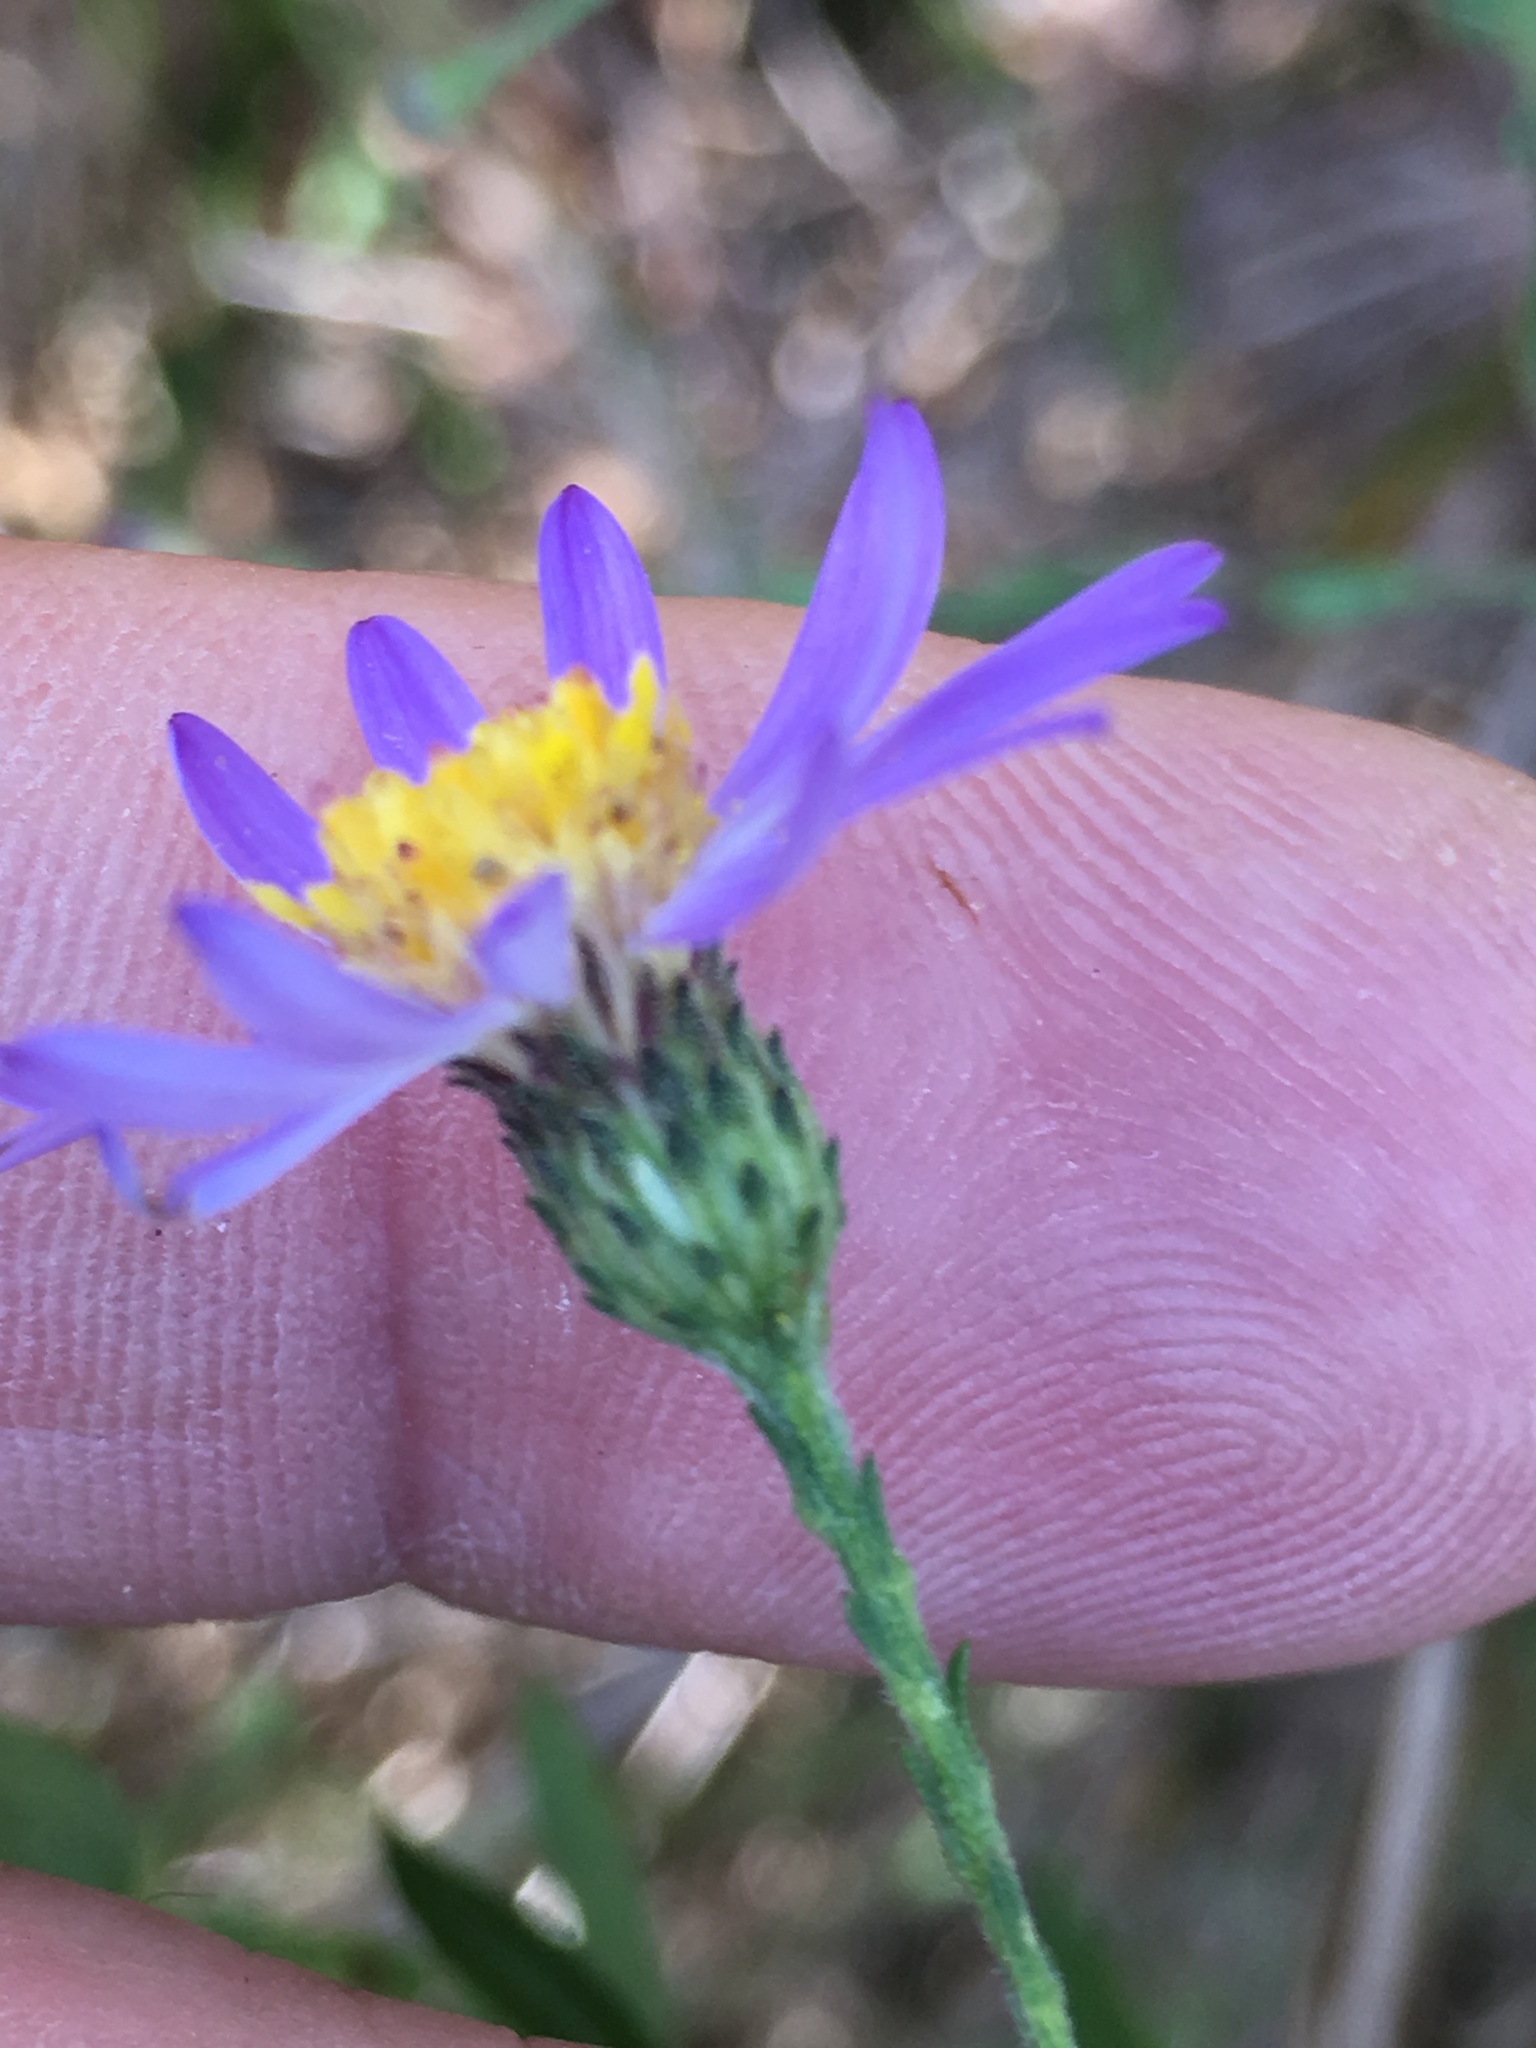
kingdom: Plantae
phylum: Tracheophyta
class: Magnoliopsida
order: Asterales
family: Asteraceae
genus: Symphyotrichum
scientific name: Symphyotrichum patens
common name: Late purple aster
